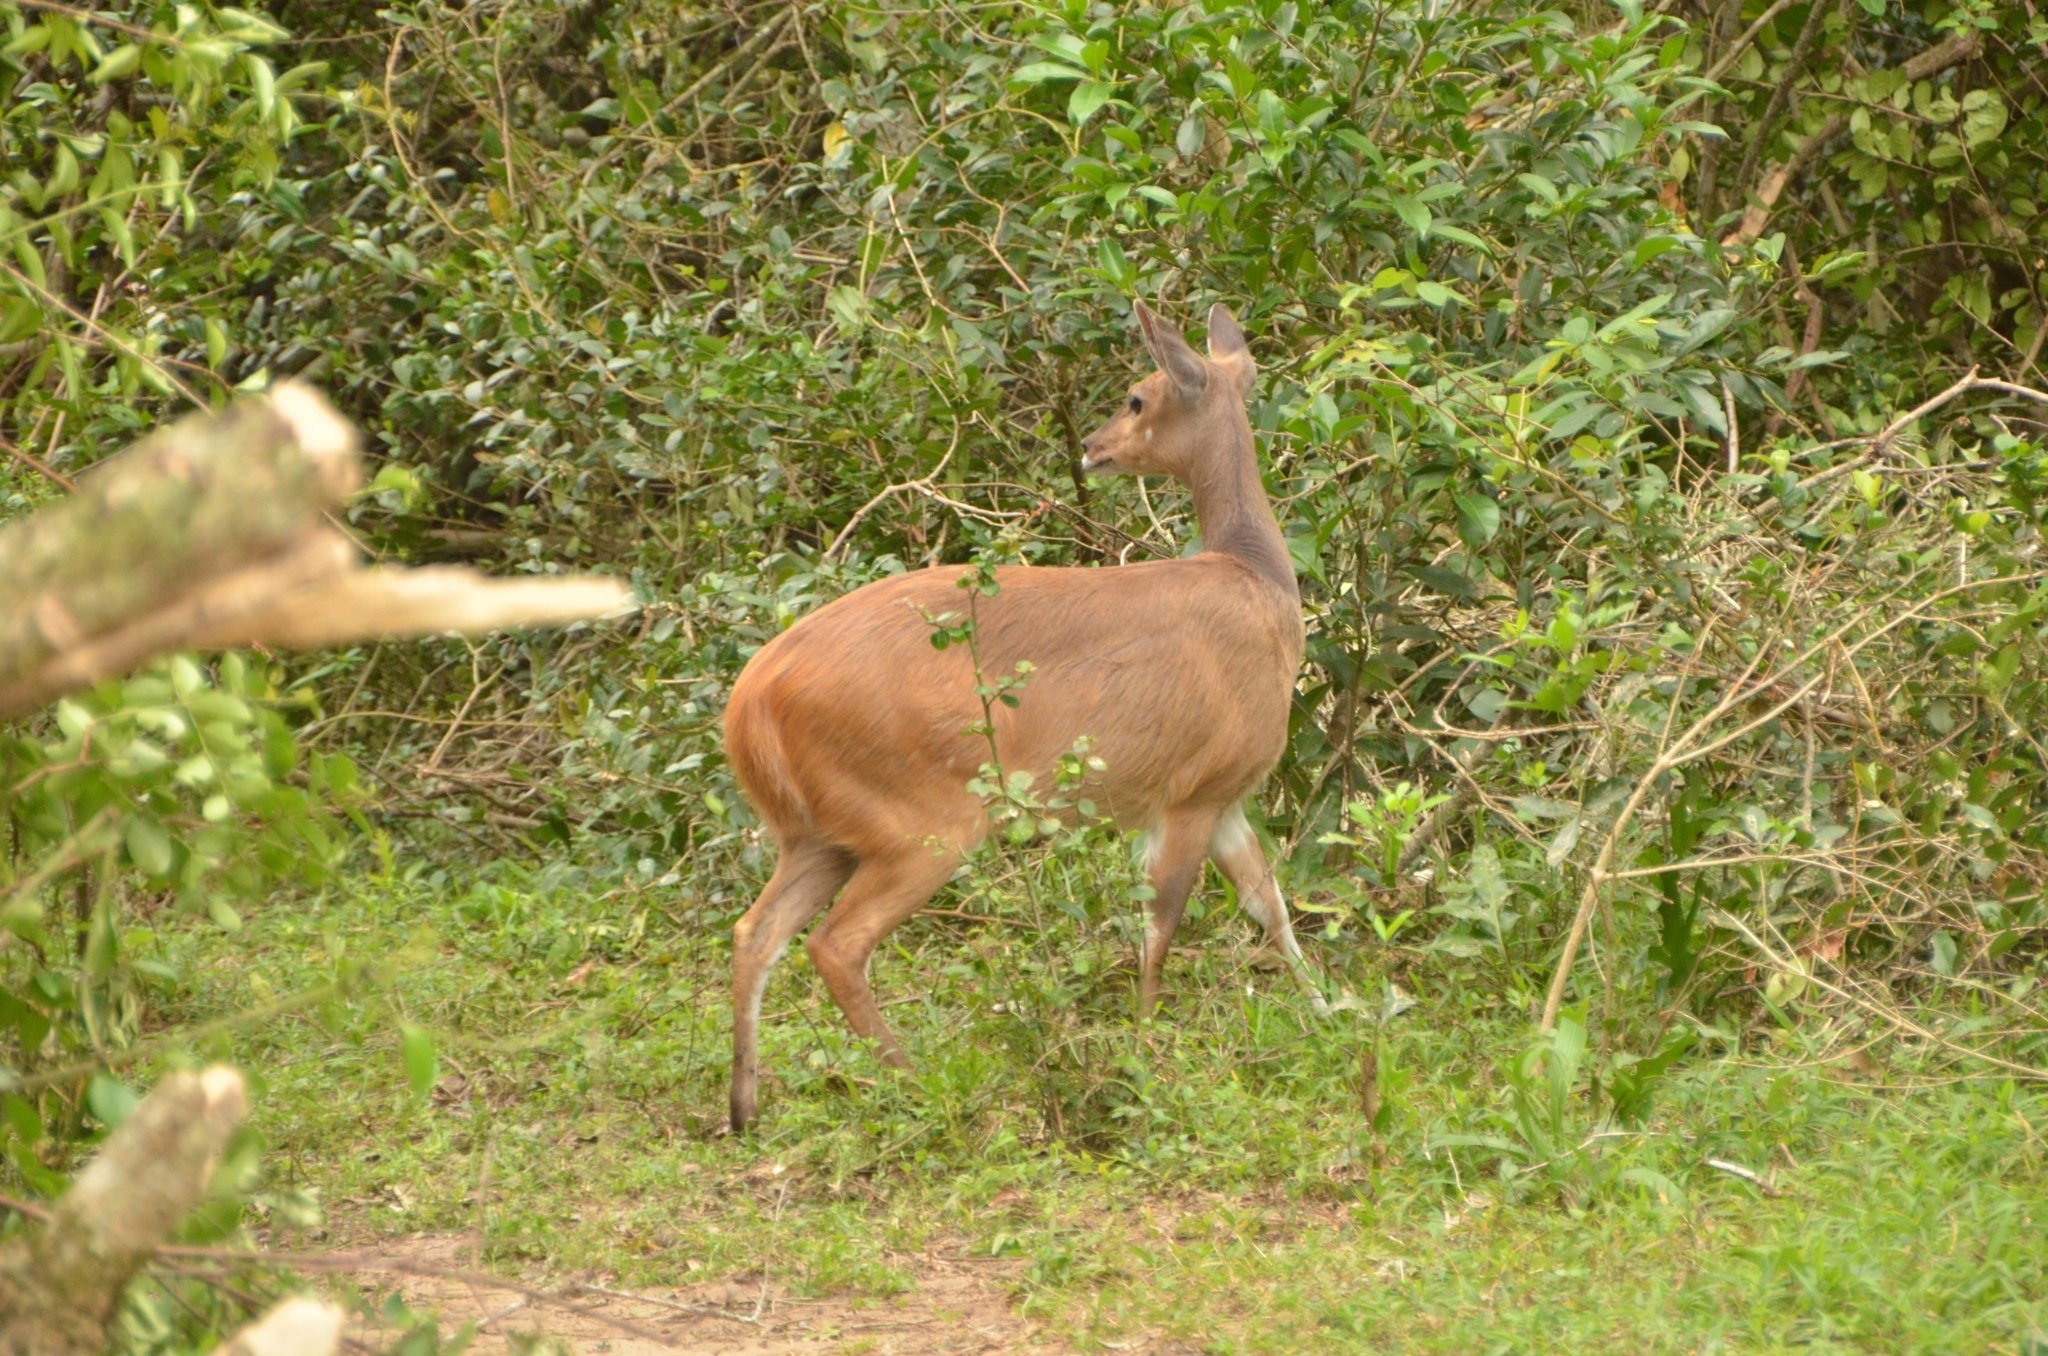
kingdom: Animalia
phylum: Chordata
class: Mammalia
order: Artiodactyla
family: Bovidae
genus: Tragelaphus
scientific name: Tragelaphus scriptus
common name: Bushbuck
